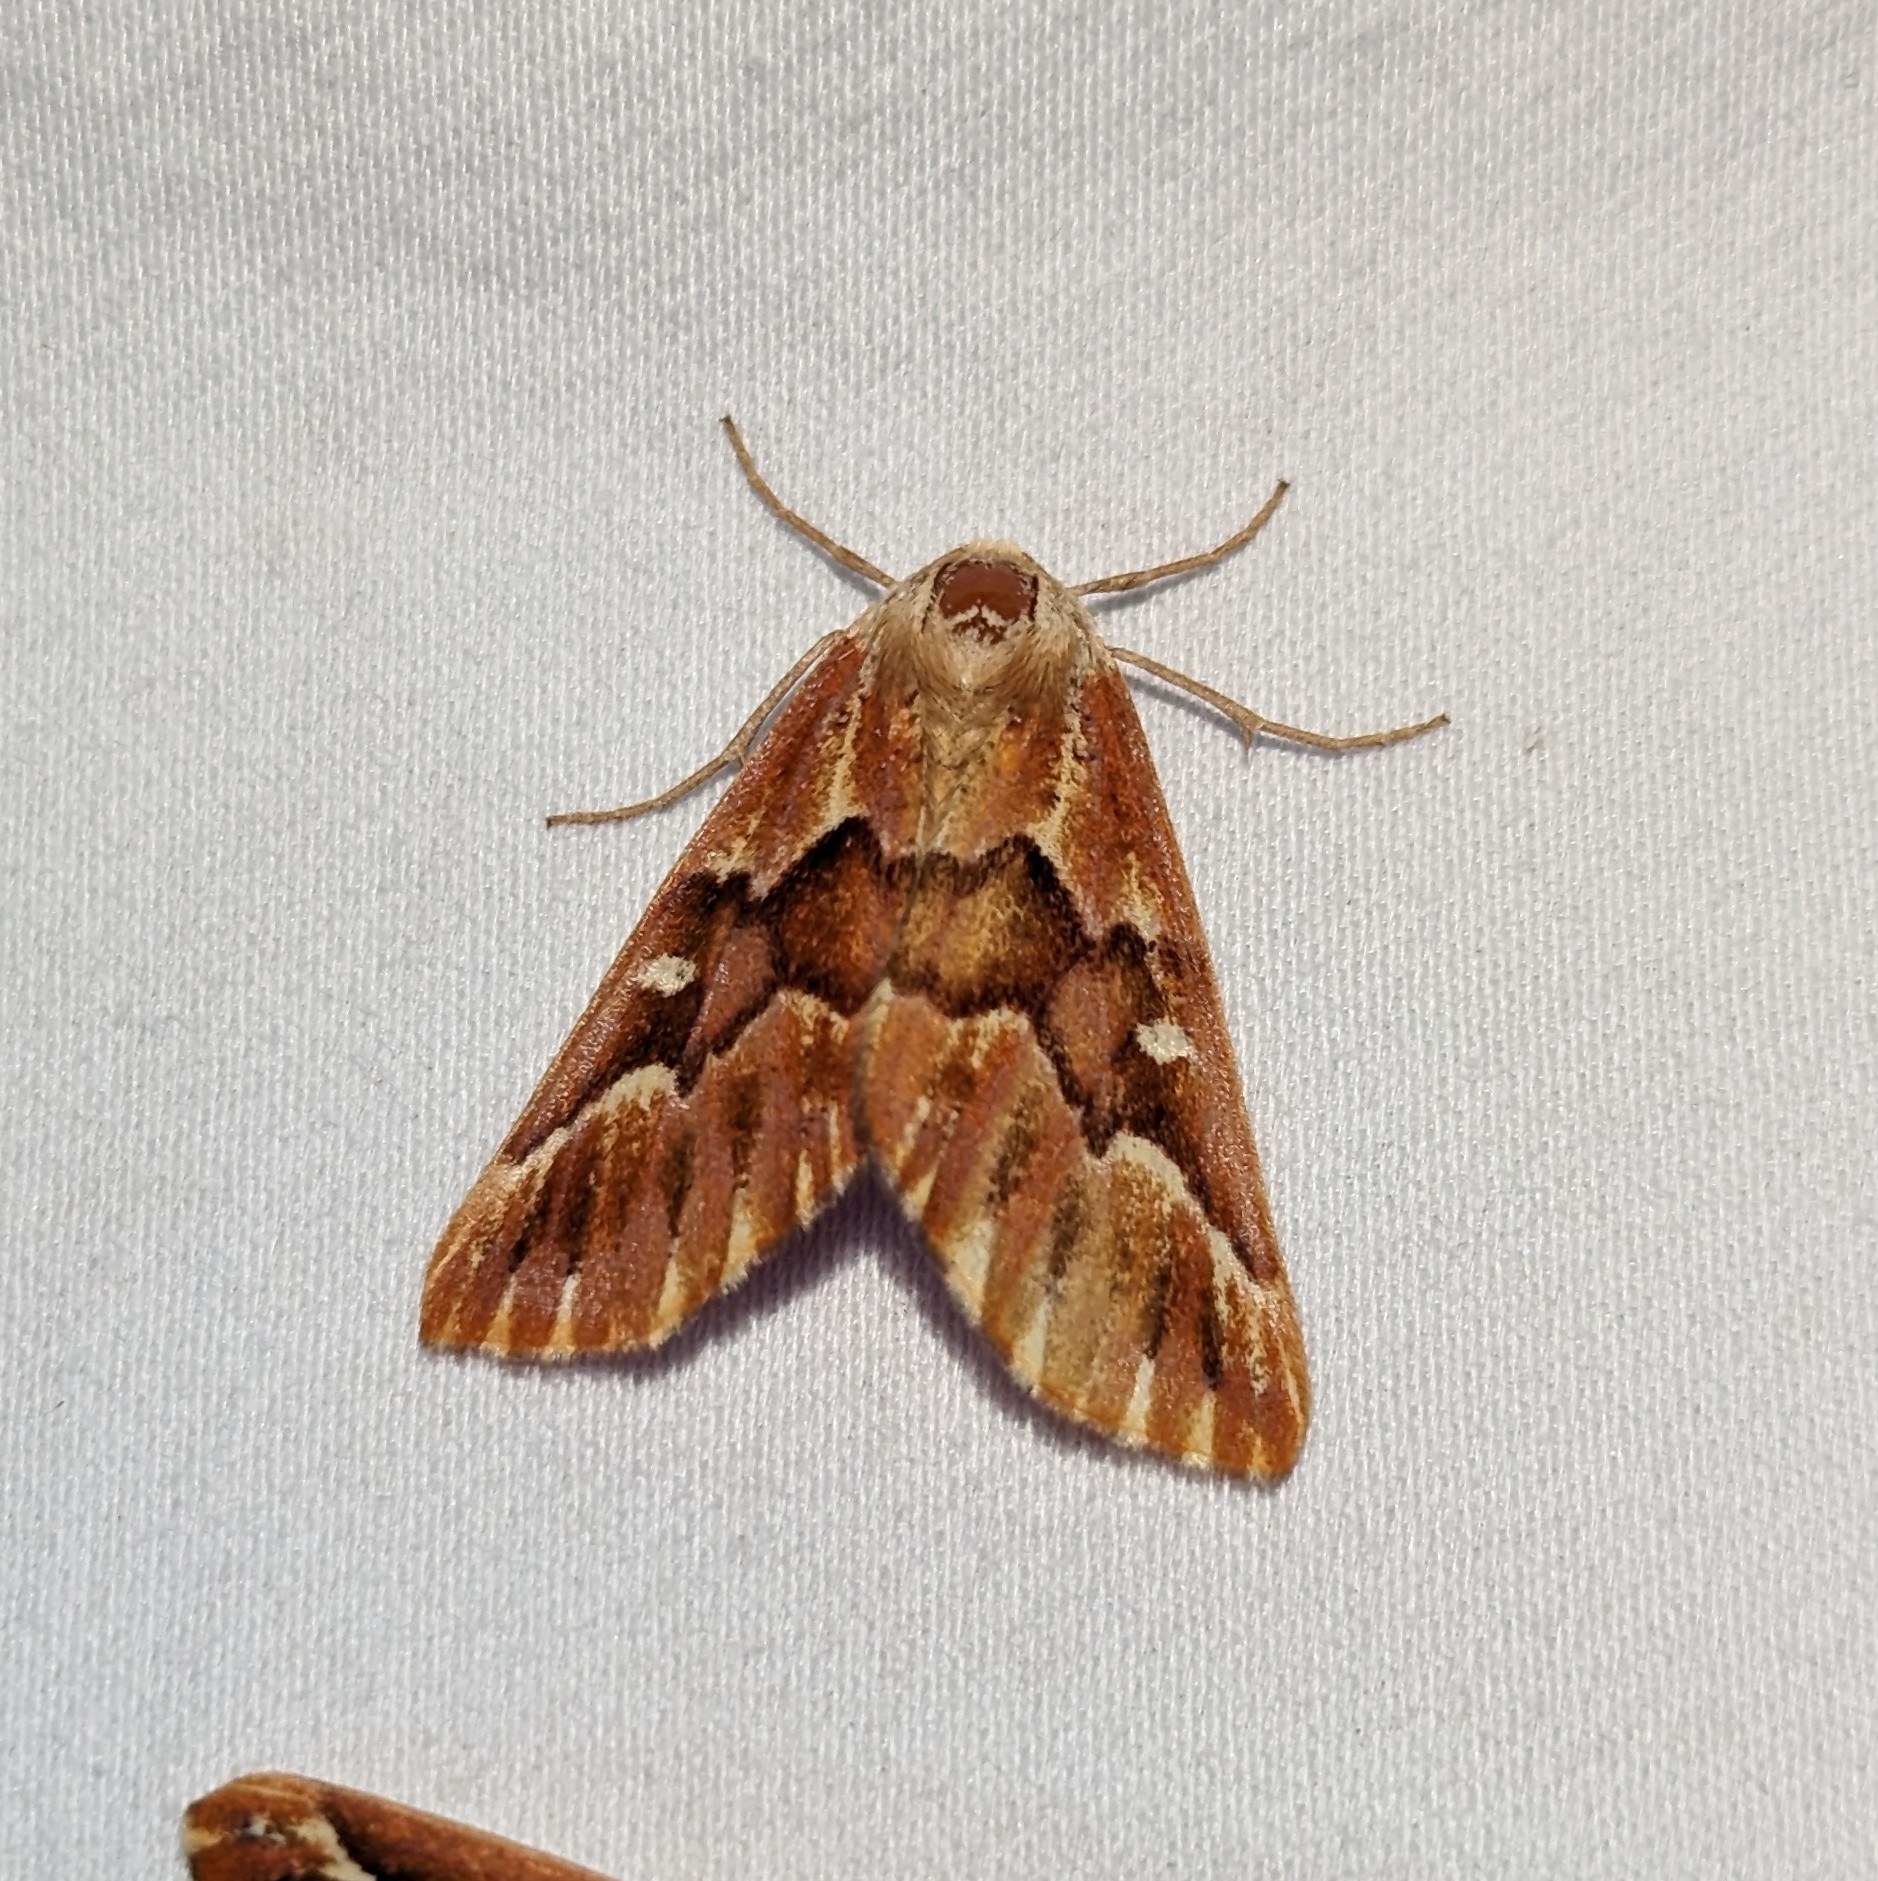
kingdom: Animalia
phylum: Arthropoda
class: Insecta
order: Lepidoptera
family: Geometridae
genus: Caripeta
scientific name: Caripeta aequaliaria
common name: Red girdle moth
